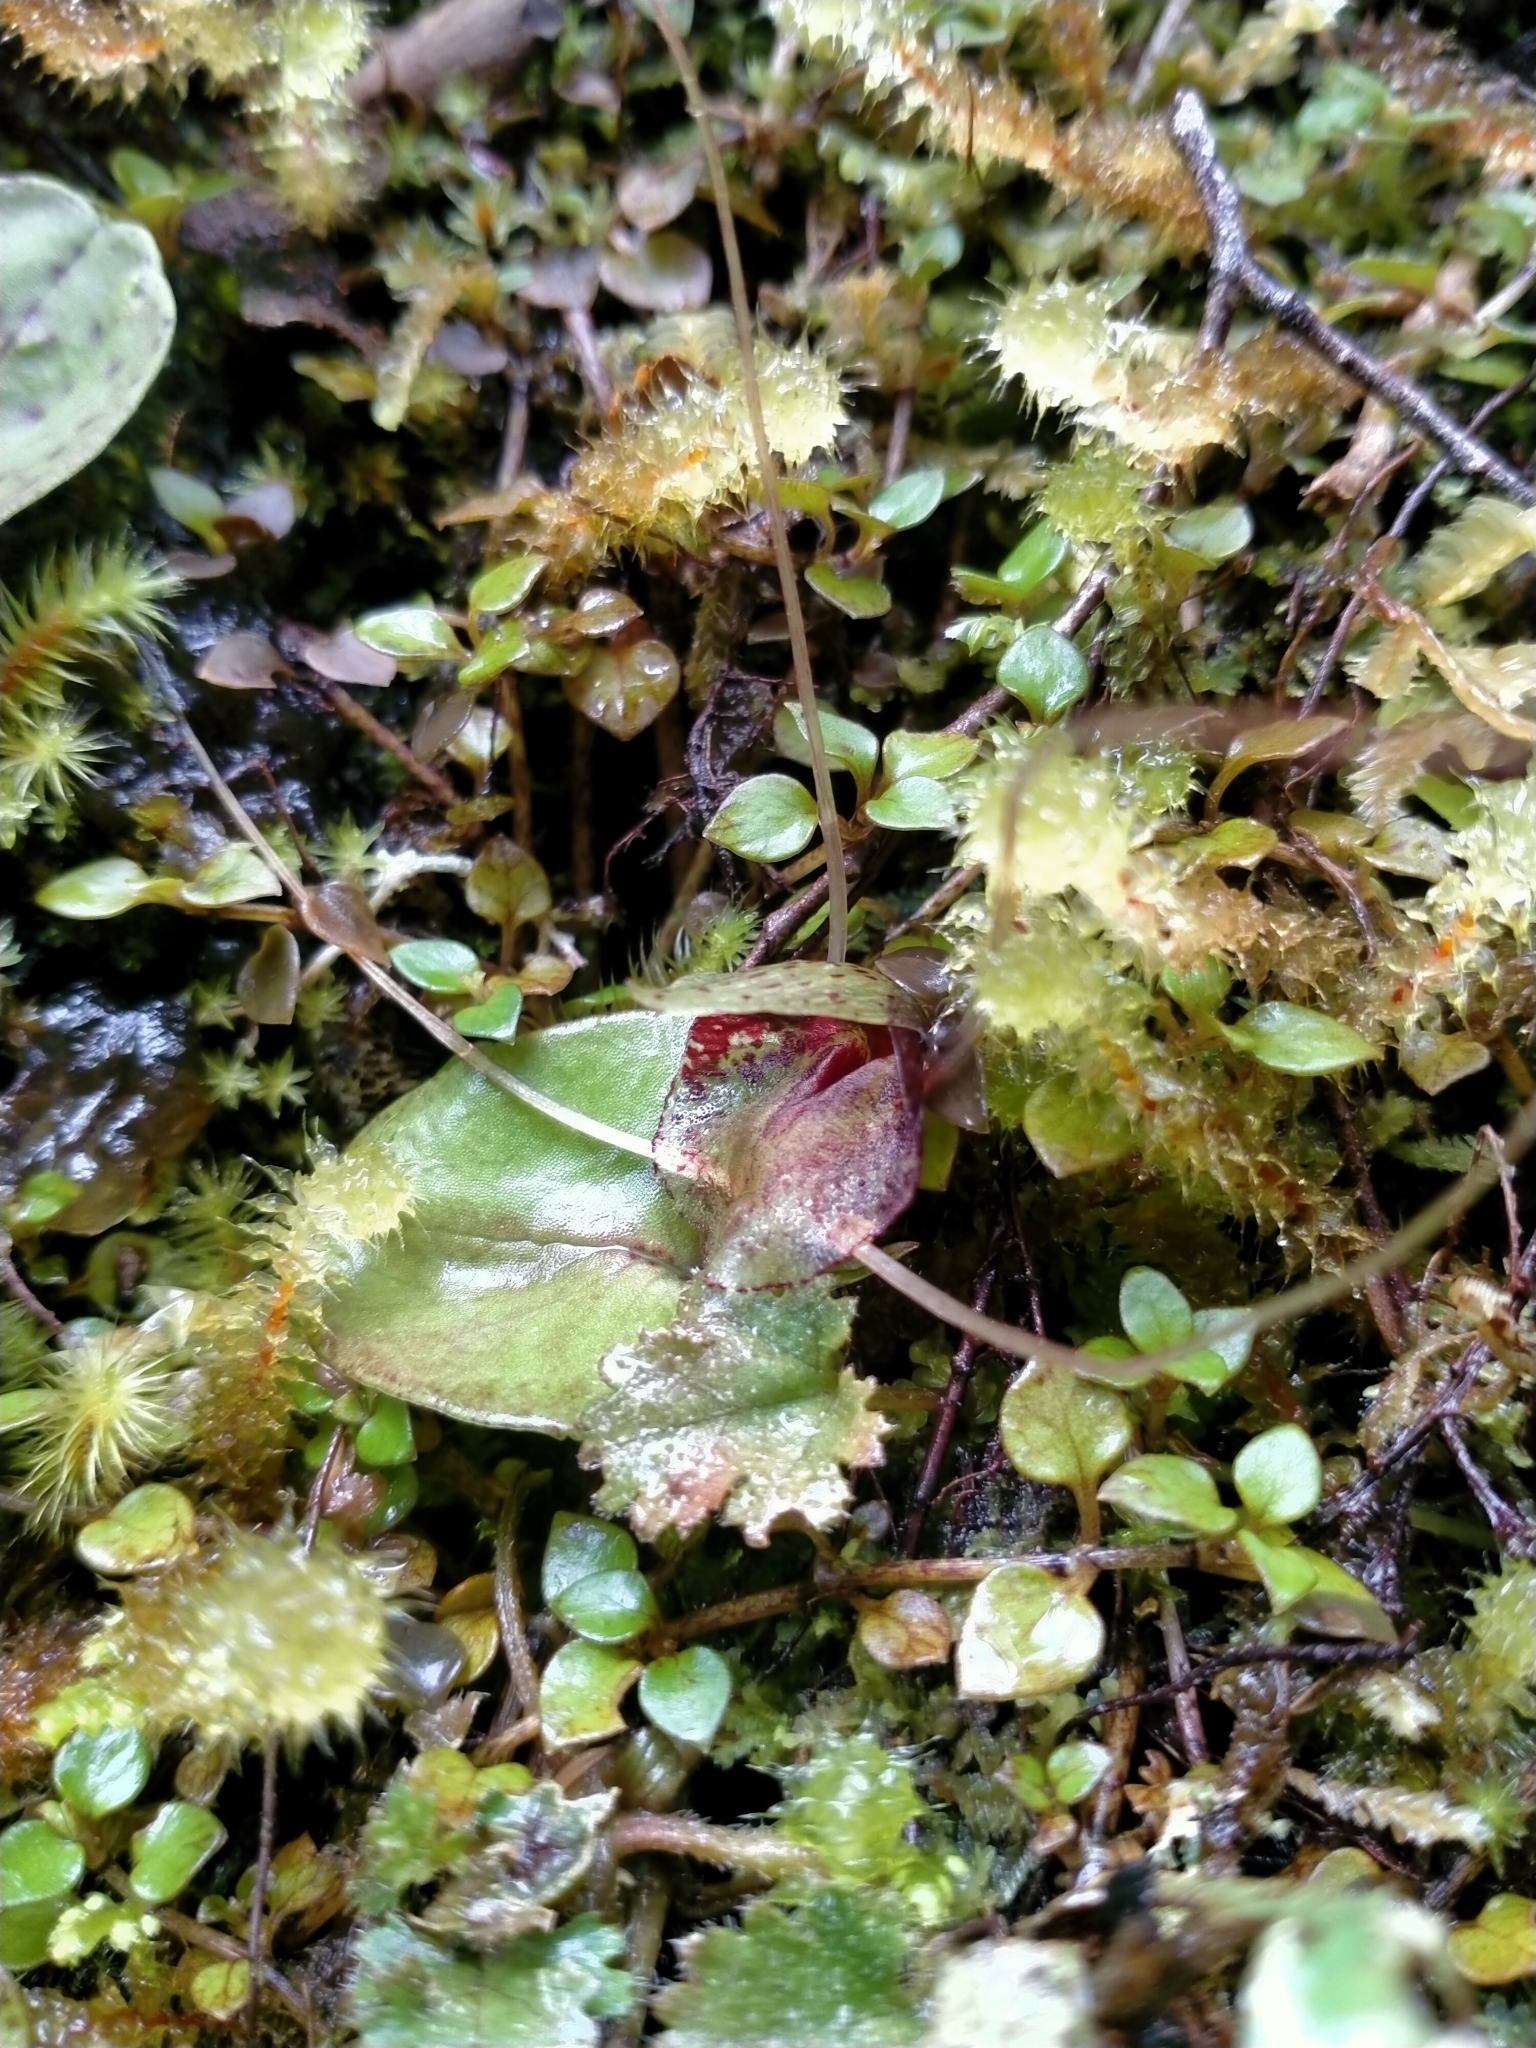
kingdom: Plantae
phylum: Tracheophyta
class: Liliopsida
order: Asparagales
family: Orchidaceae
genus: Corybas
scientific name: Corybas hatchii
